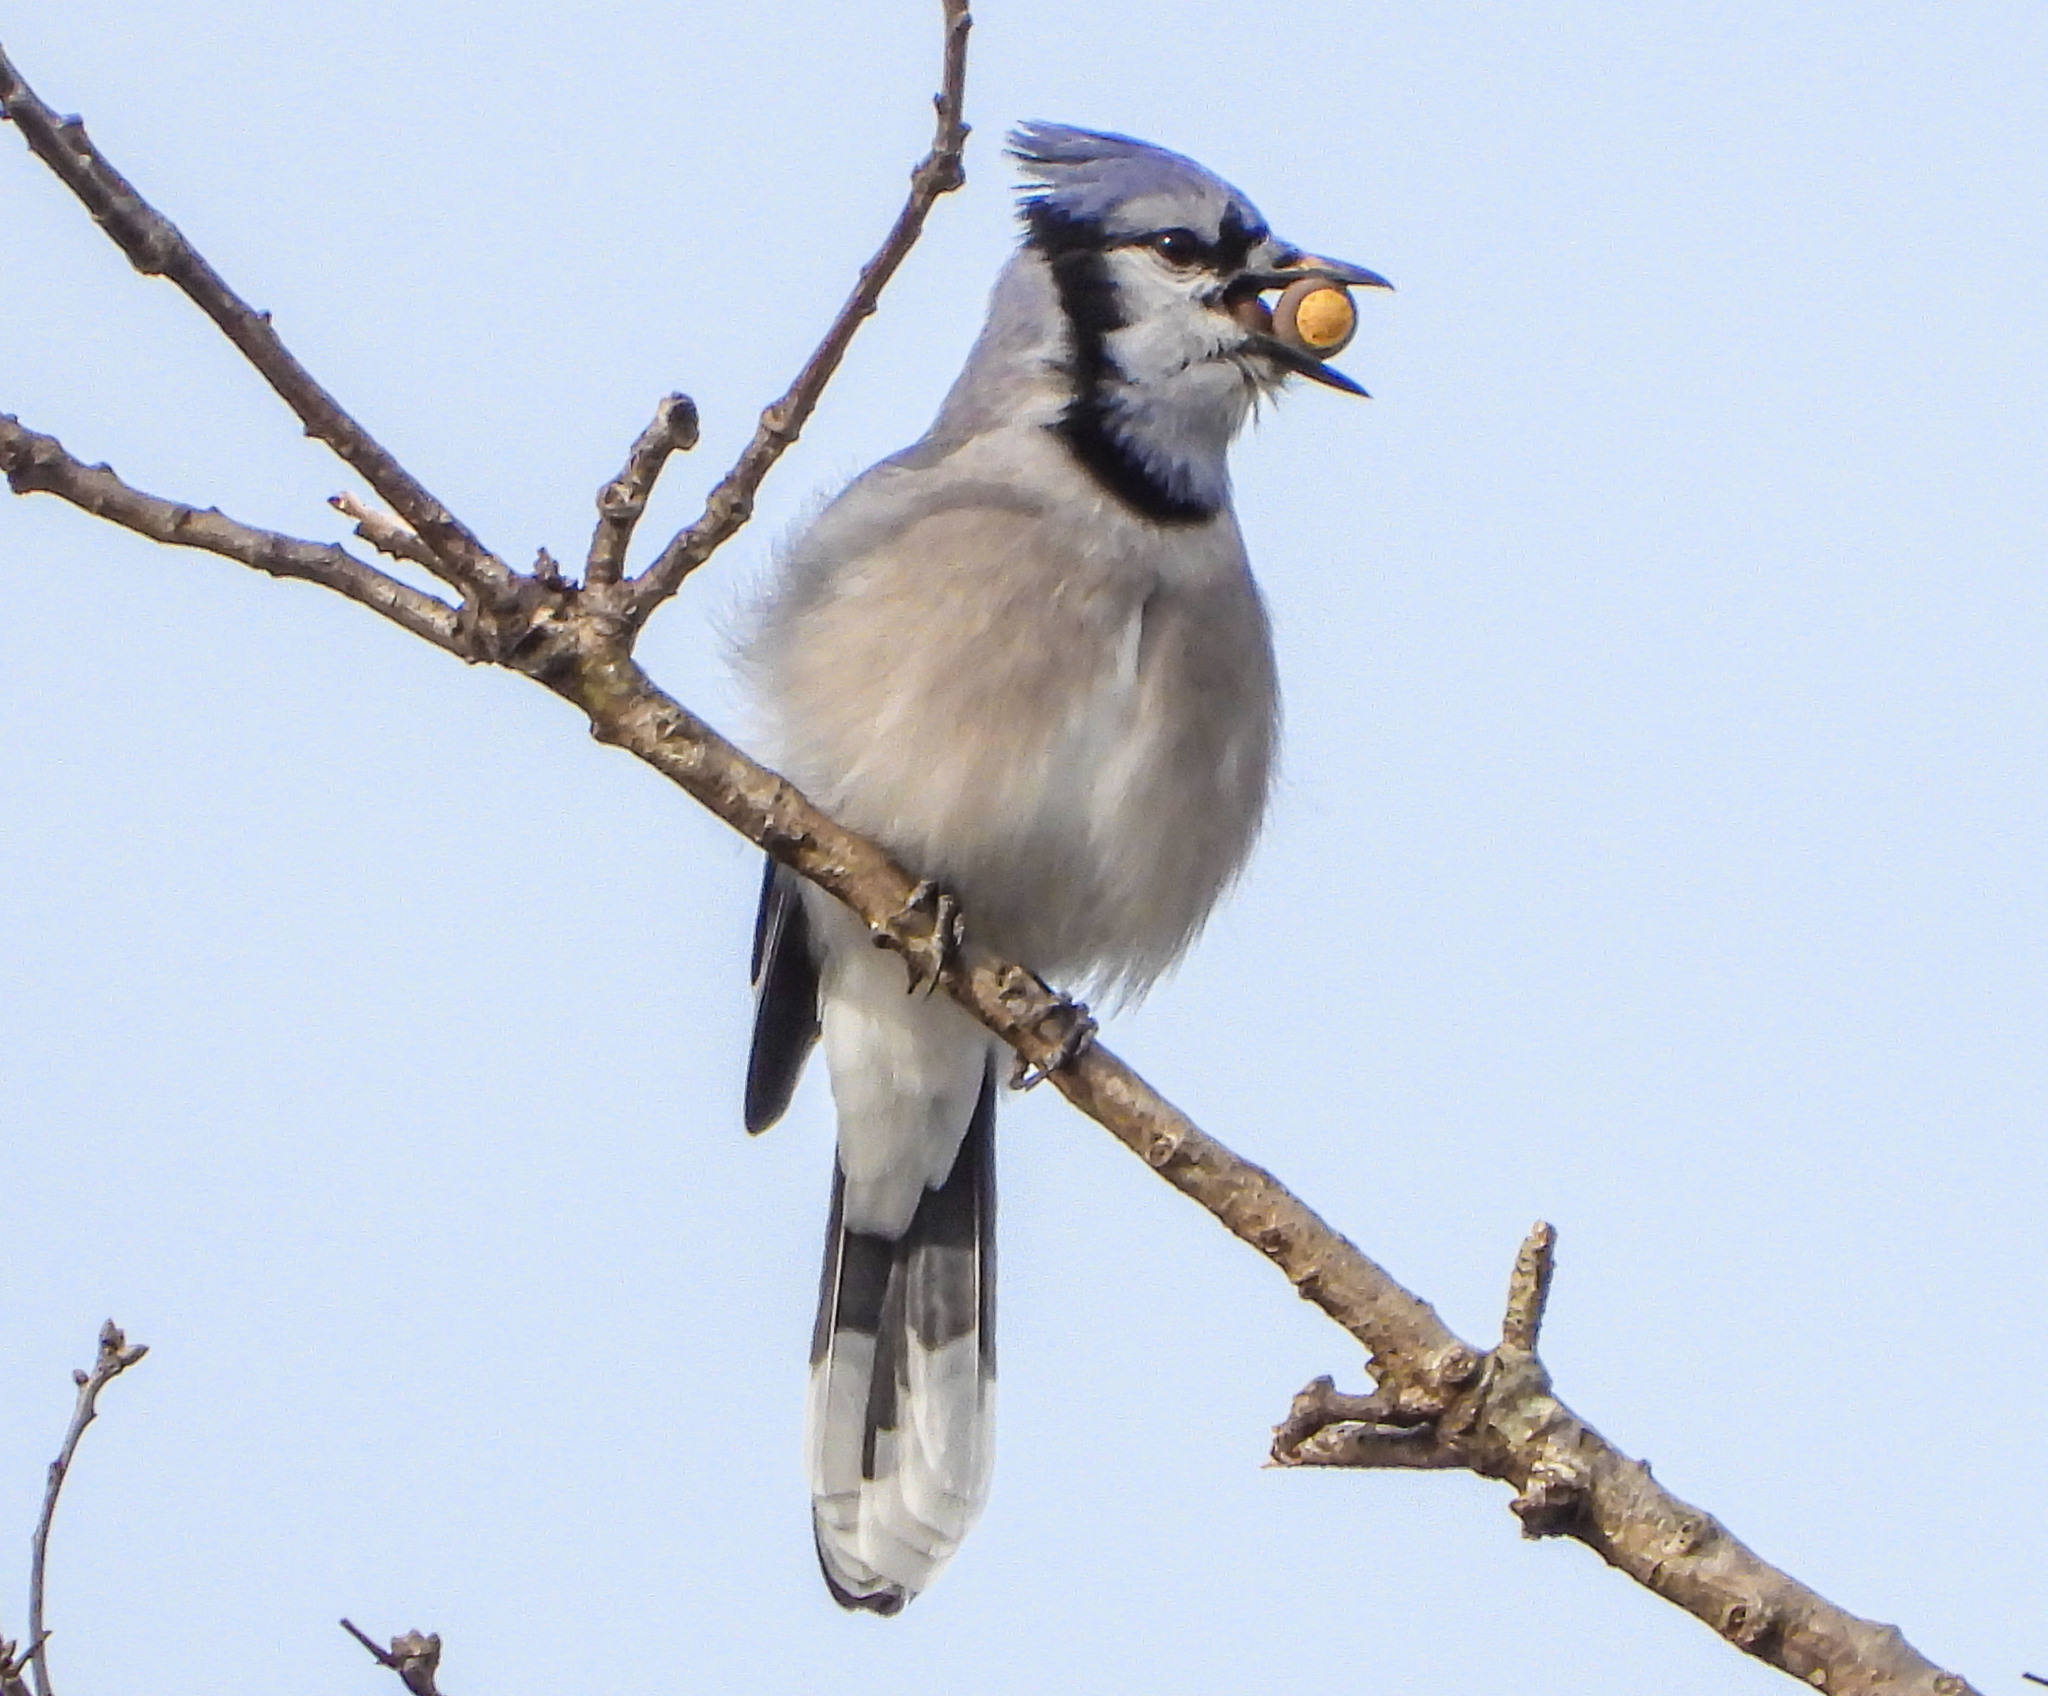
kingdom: Animalia
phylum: Chordata
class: Aves
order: Passeriformes
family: Corvidae
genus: Cyanocitta
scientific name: Cyanocitta cristata
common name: Blue jay
